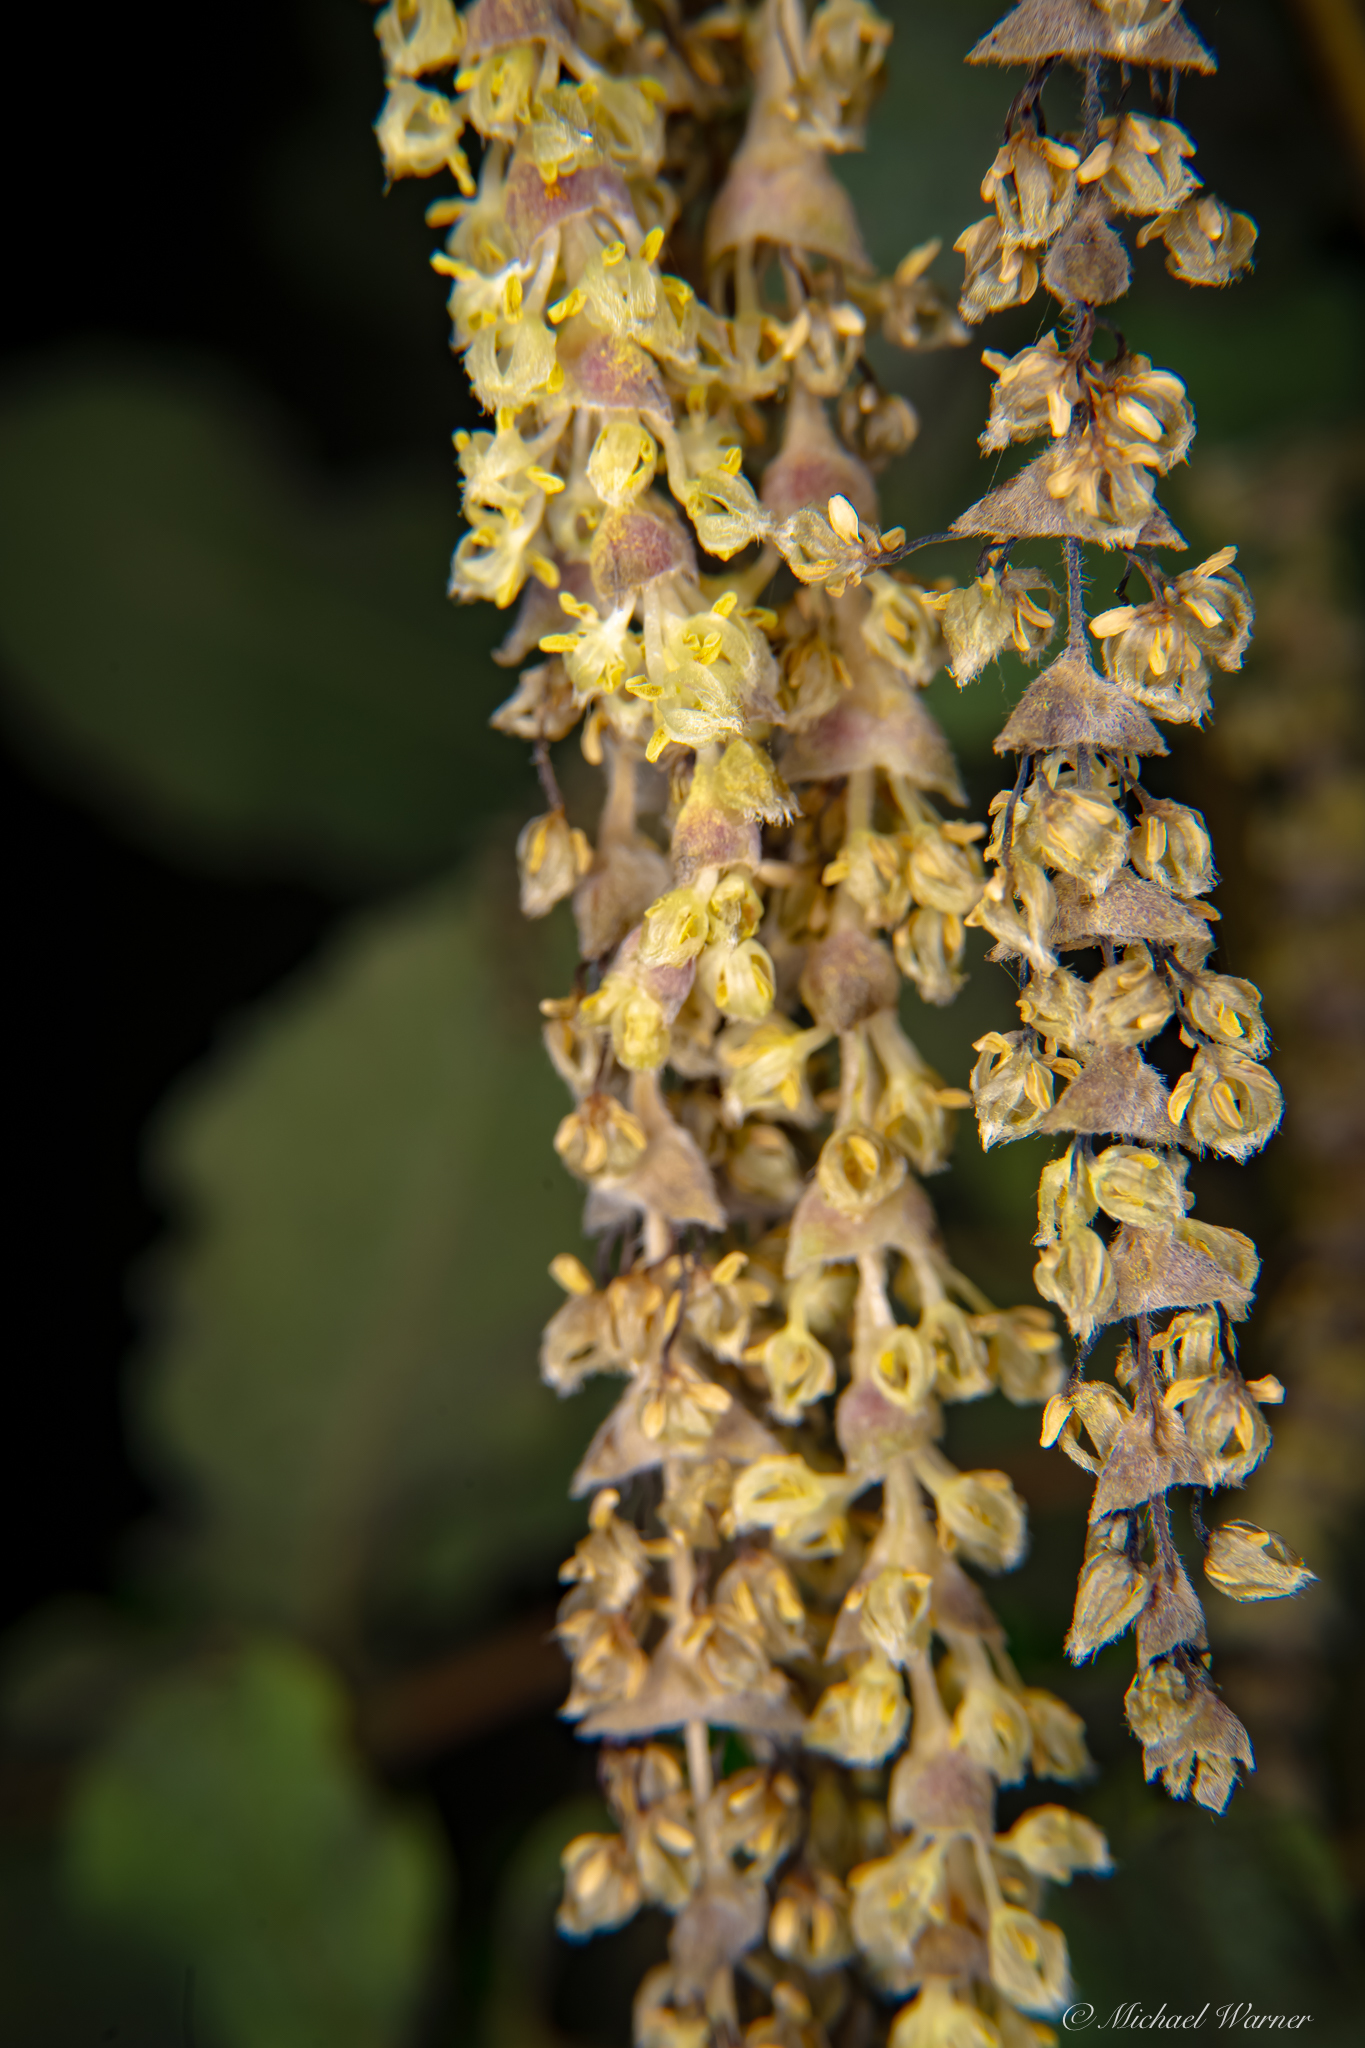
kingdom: Plantae
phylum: Tracheophyta
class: Magnoliopsida
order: Garryales
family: Garryaceae
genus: Garrya
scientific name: Garrya elliptica
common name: Silk-tassel
